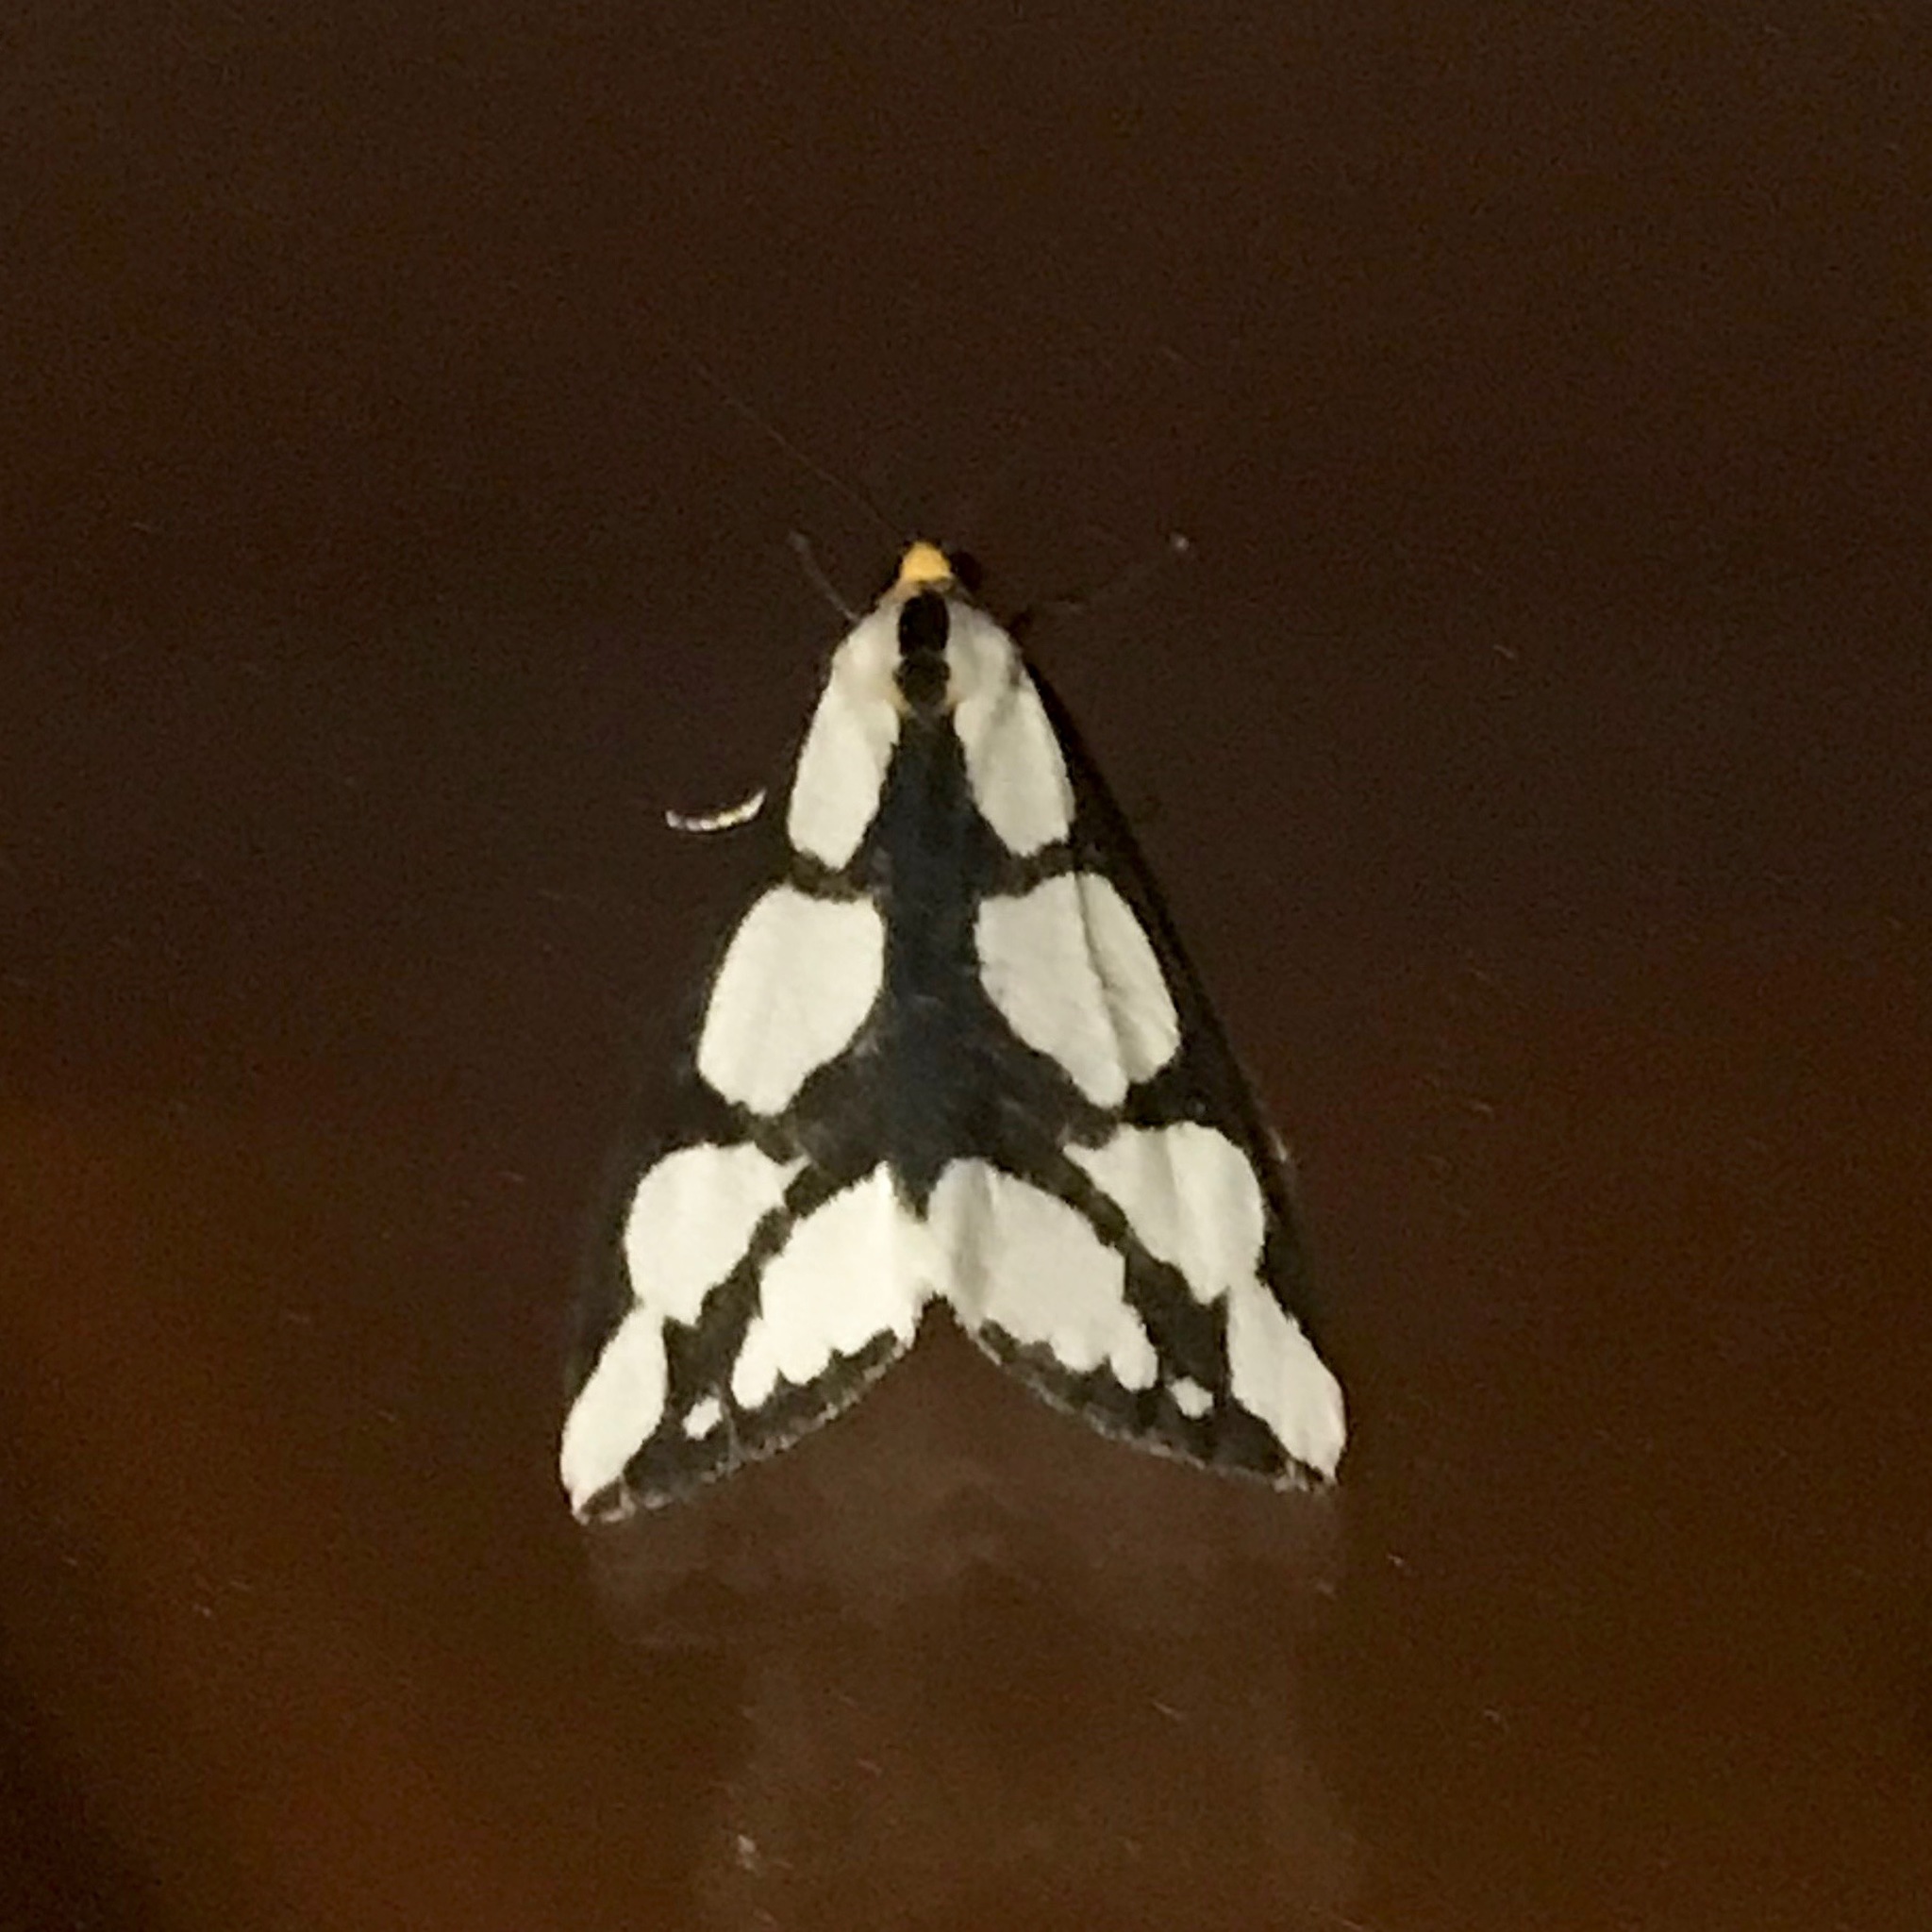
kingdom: Animalia
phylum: Arthropoda
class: Insecta
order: Lepidoptera
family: Erebidae
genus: Haploa
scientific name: Haploa lecontei
